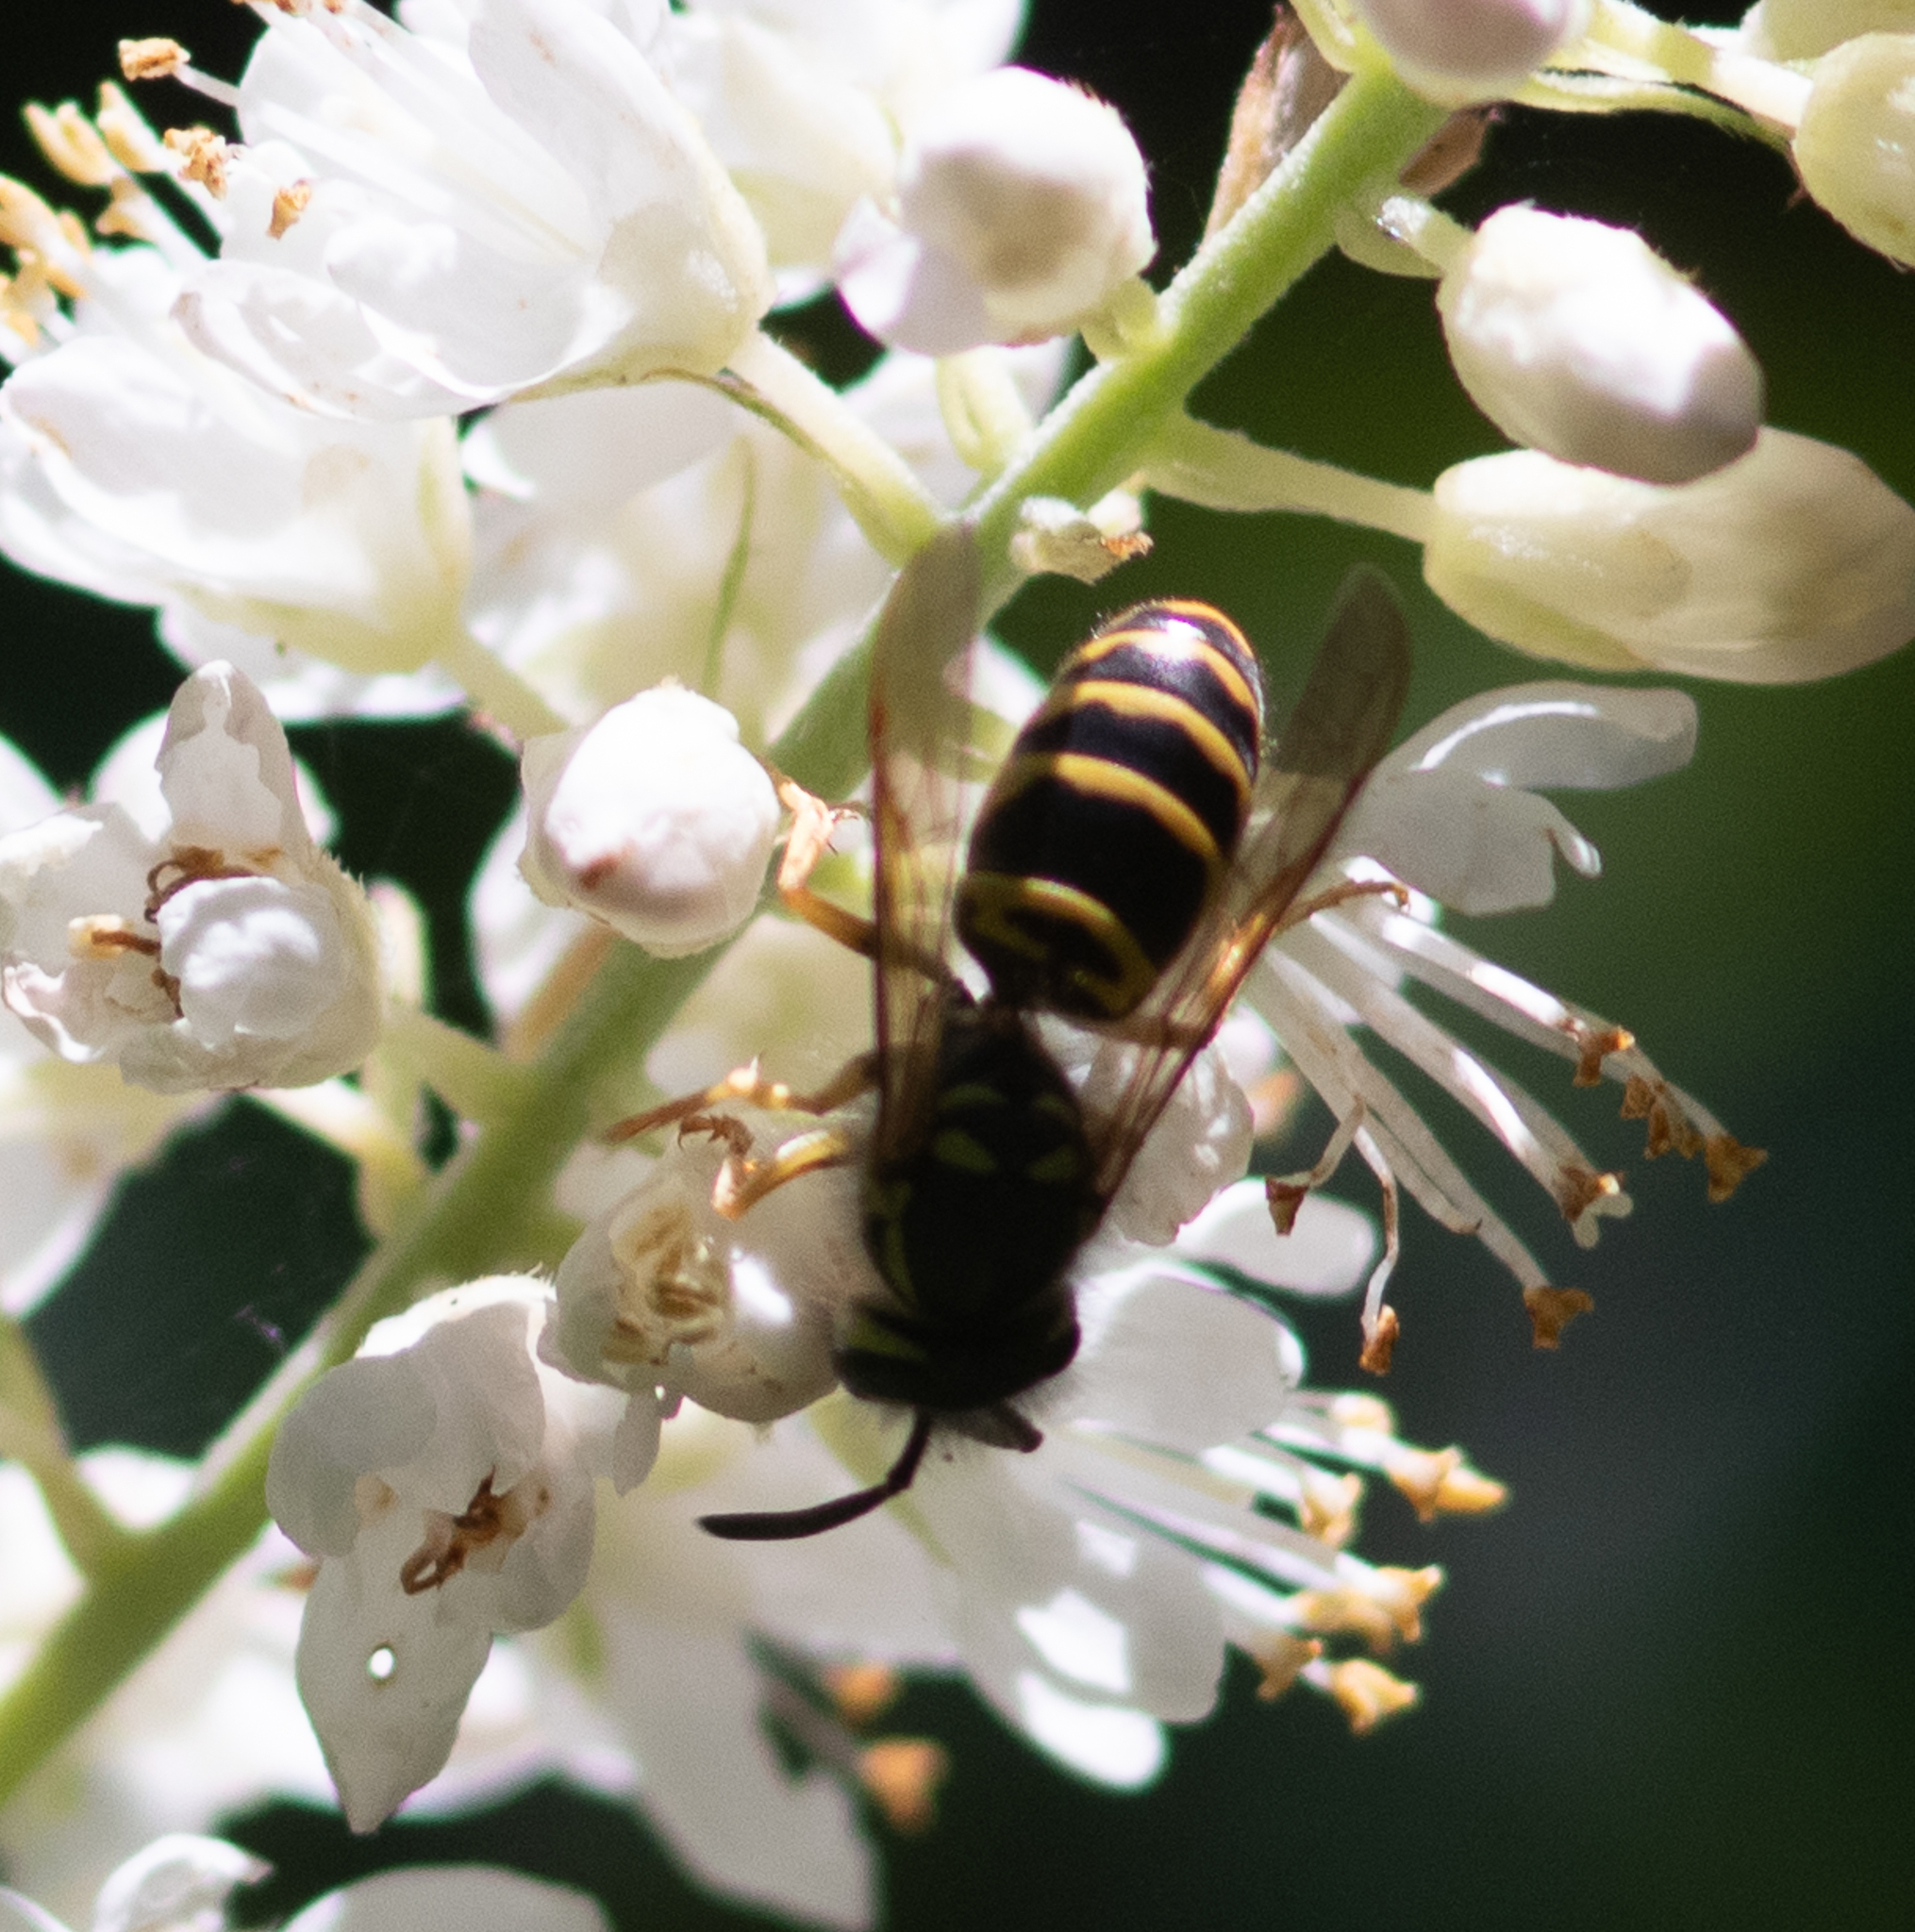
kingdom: Animalia
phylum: Arthropoda
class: Insecta
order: Hymenoptera
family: Vespidae
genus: Vespula
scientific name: Vespula maculifrons
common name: Eastern yellowjacket
